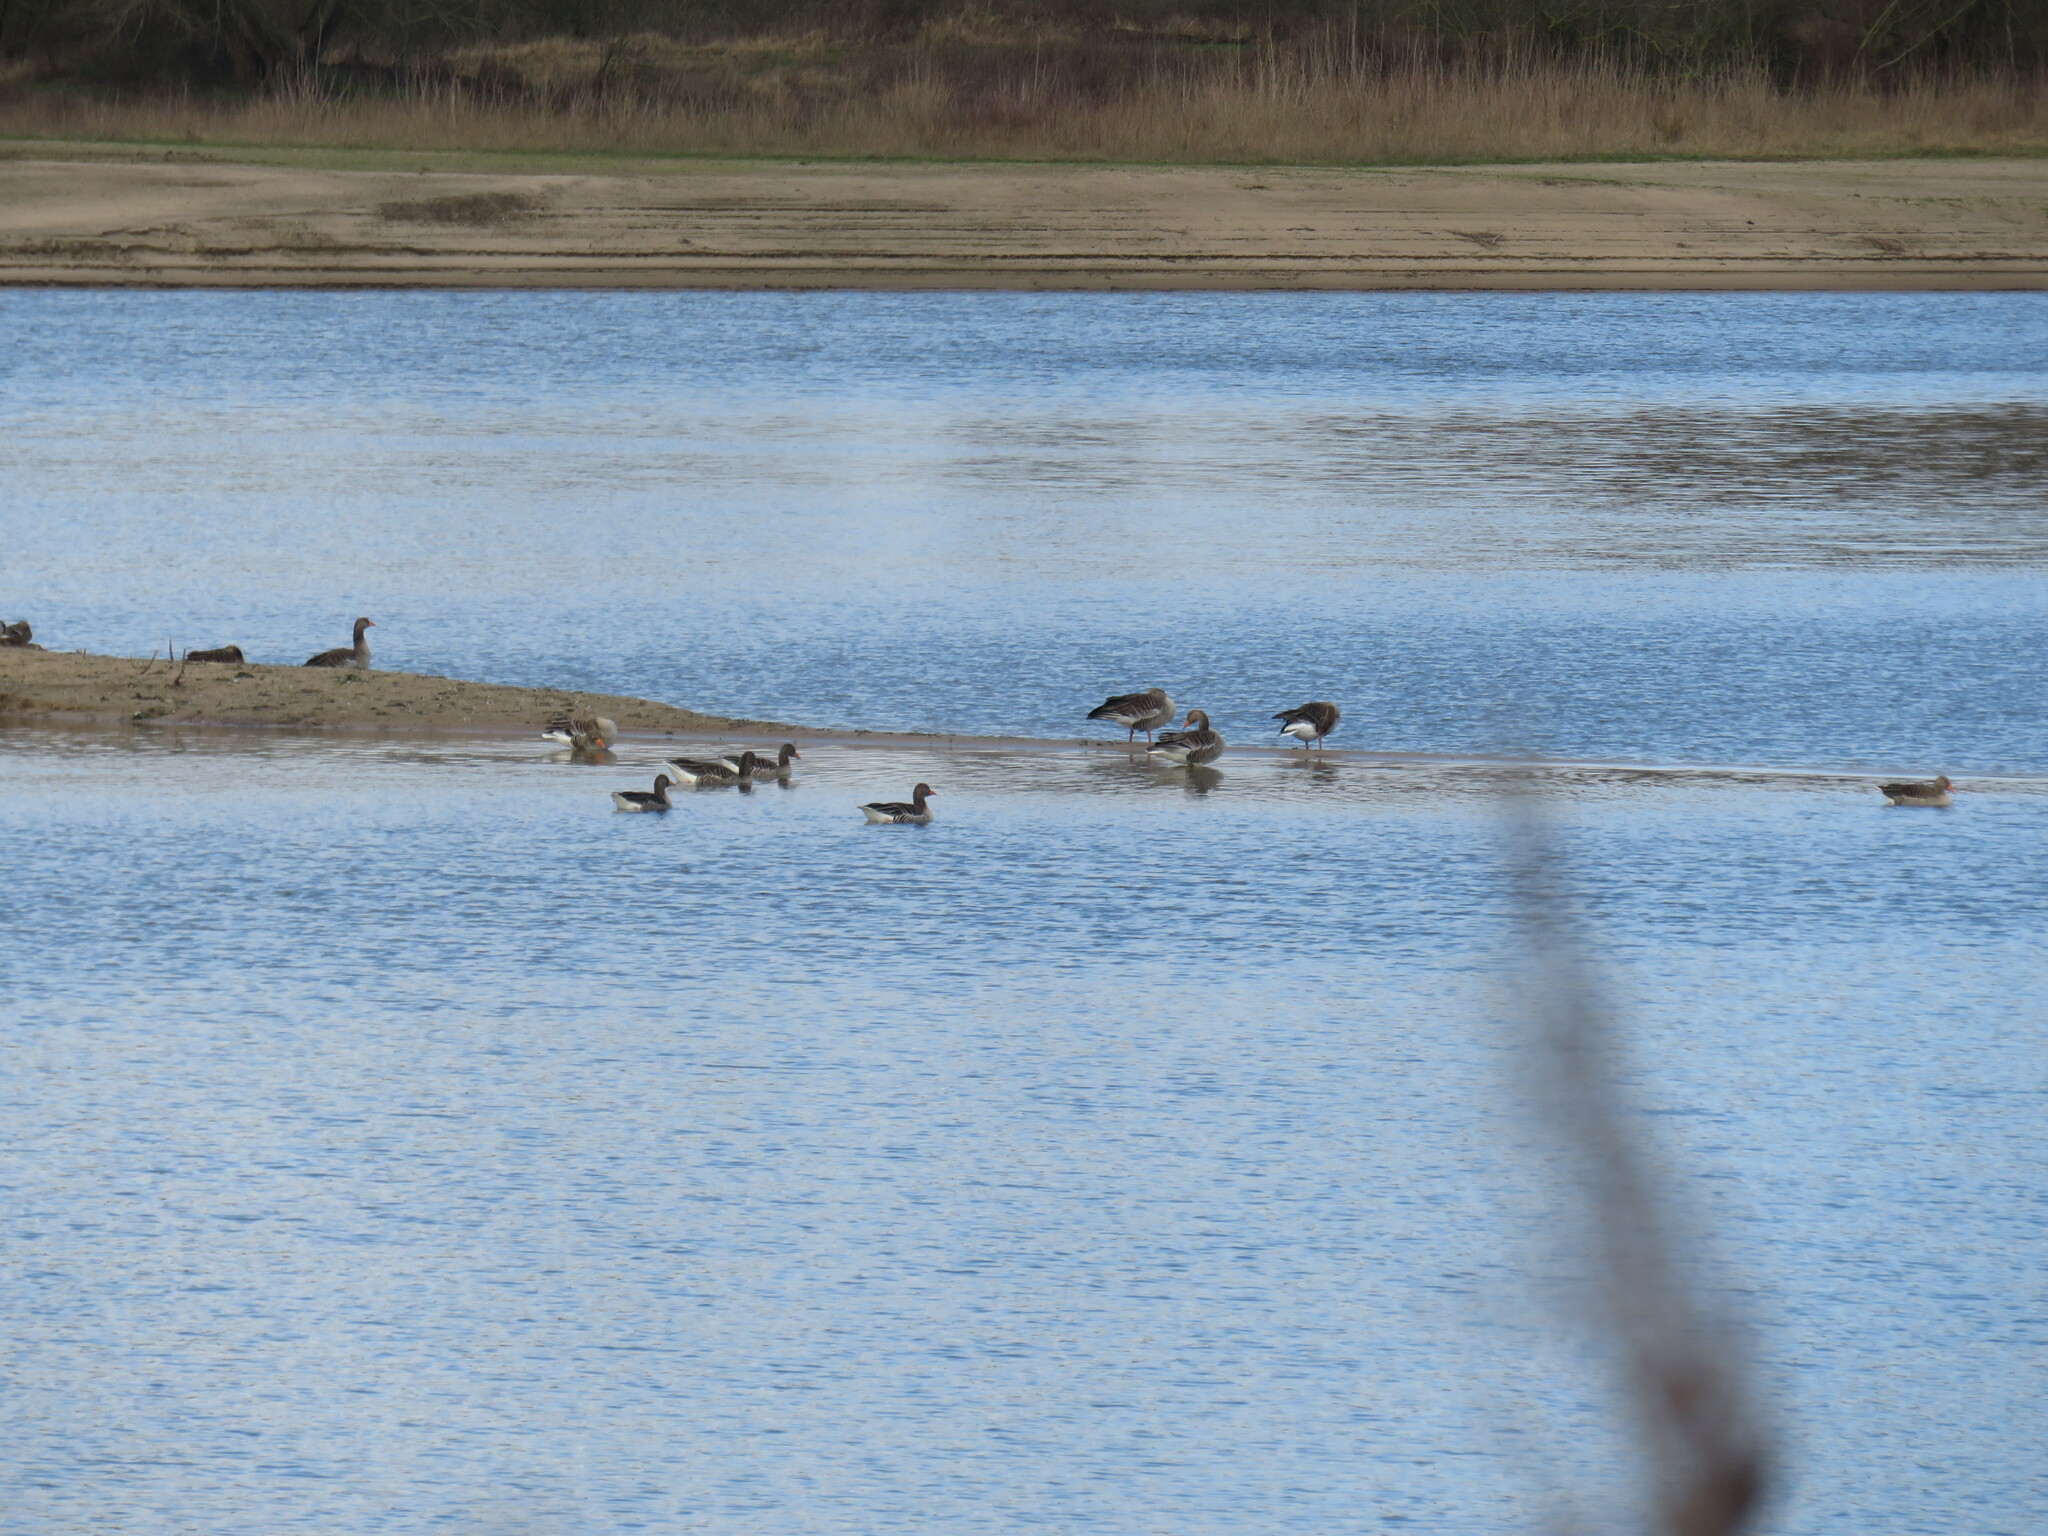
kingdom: Animalia
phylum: Chordata
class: Aves
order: Anseriformes
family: Anatidae
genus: Anser
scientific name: Anser anser
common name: Greylag goose
